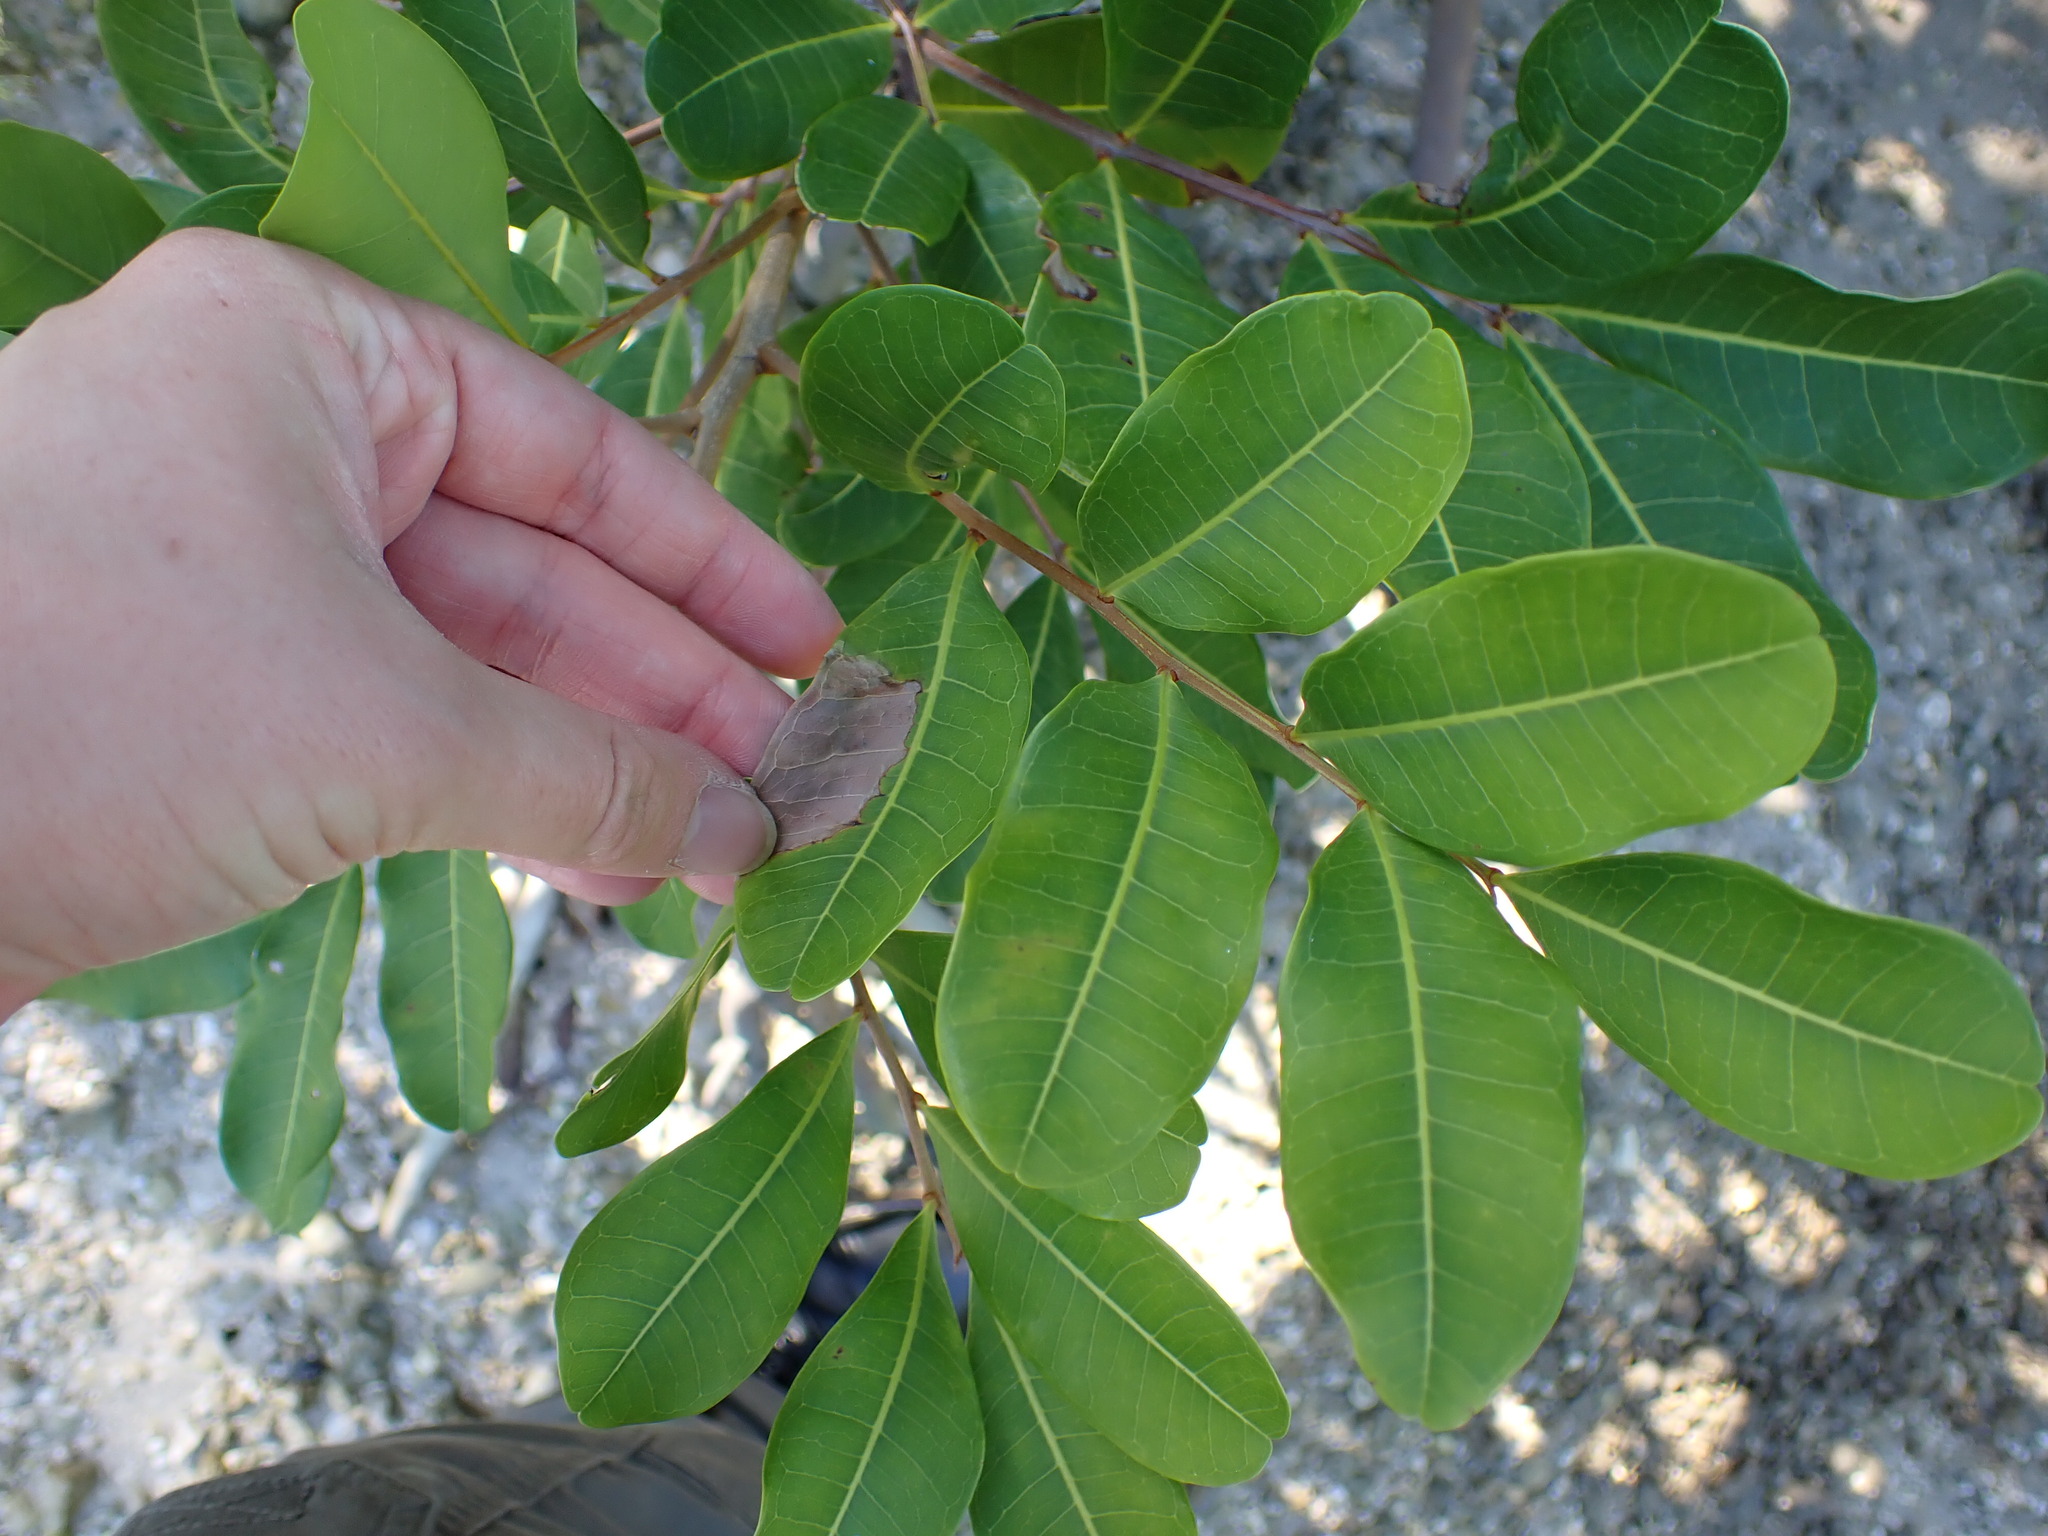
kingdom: Plantae
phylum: Tracheophyta
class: Magnoliopsida
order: Sapindales
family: Sapindaceae
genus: Cupaniopsis
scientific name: Cupaniopsis anacardioides
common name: Carrotwood
